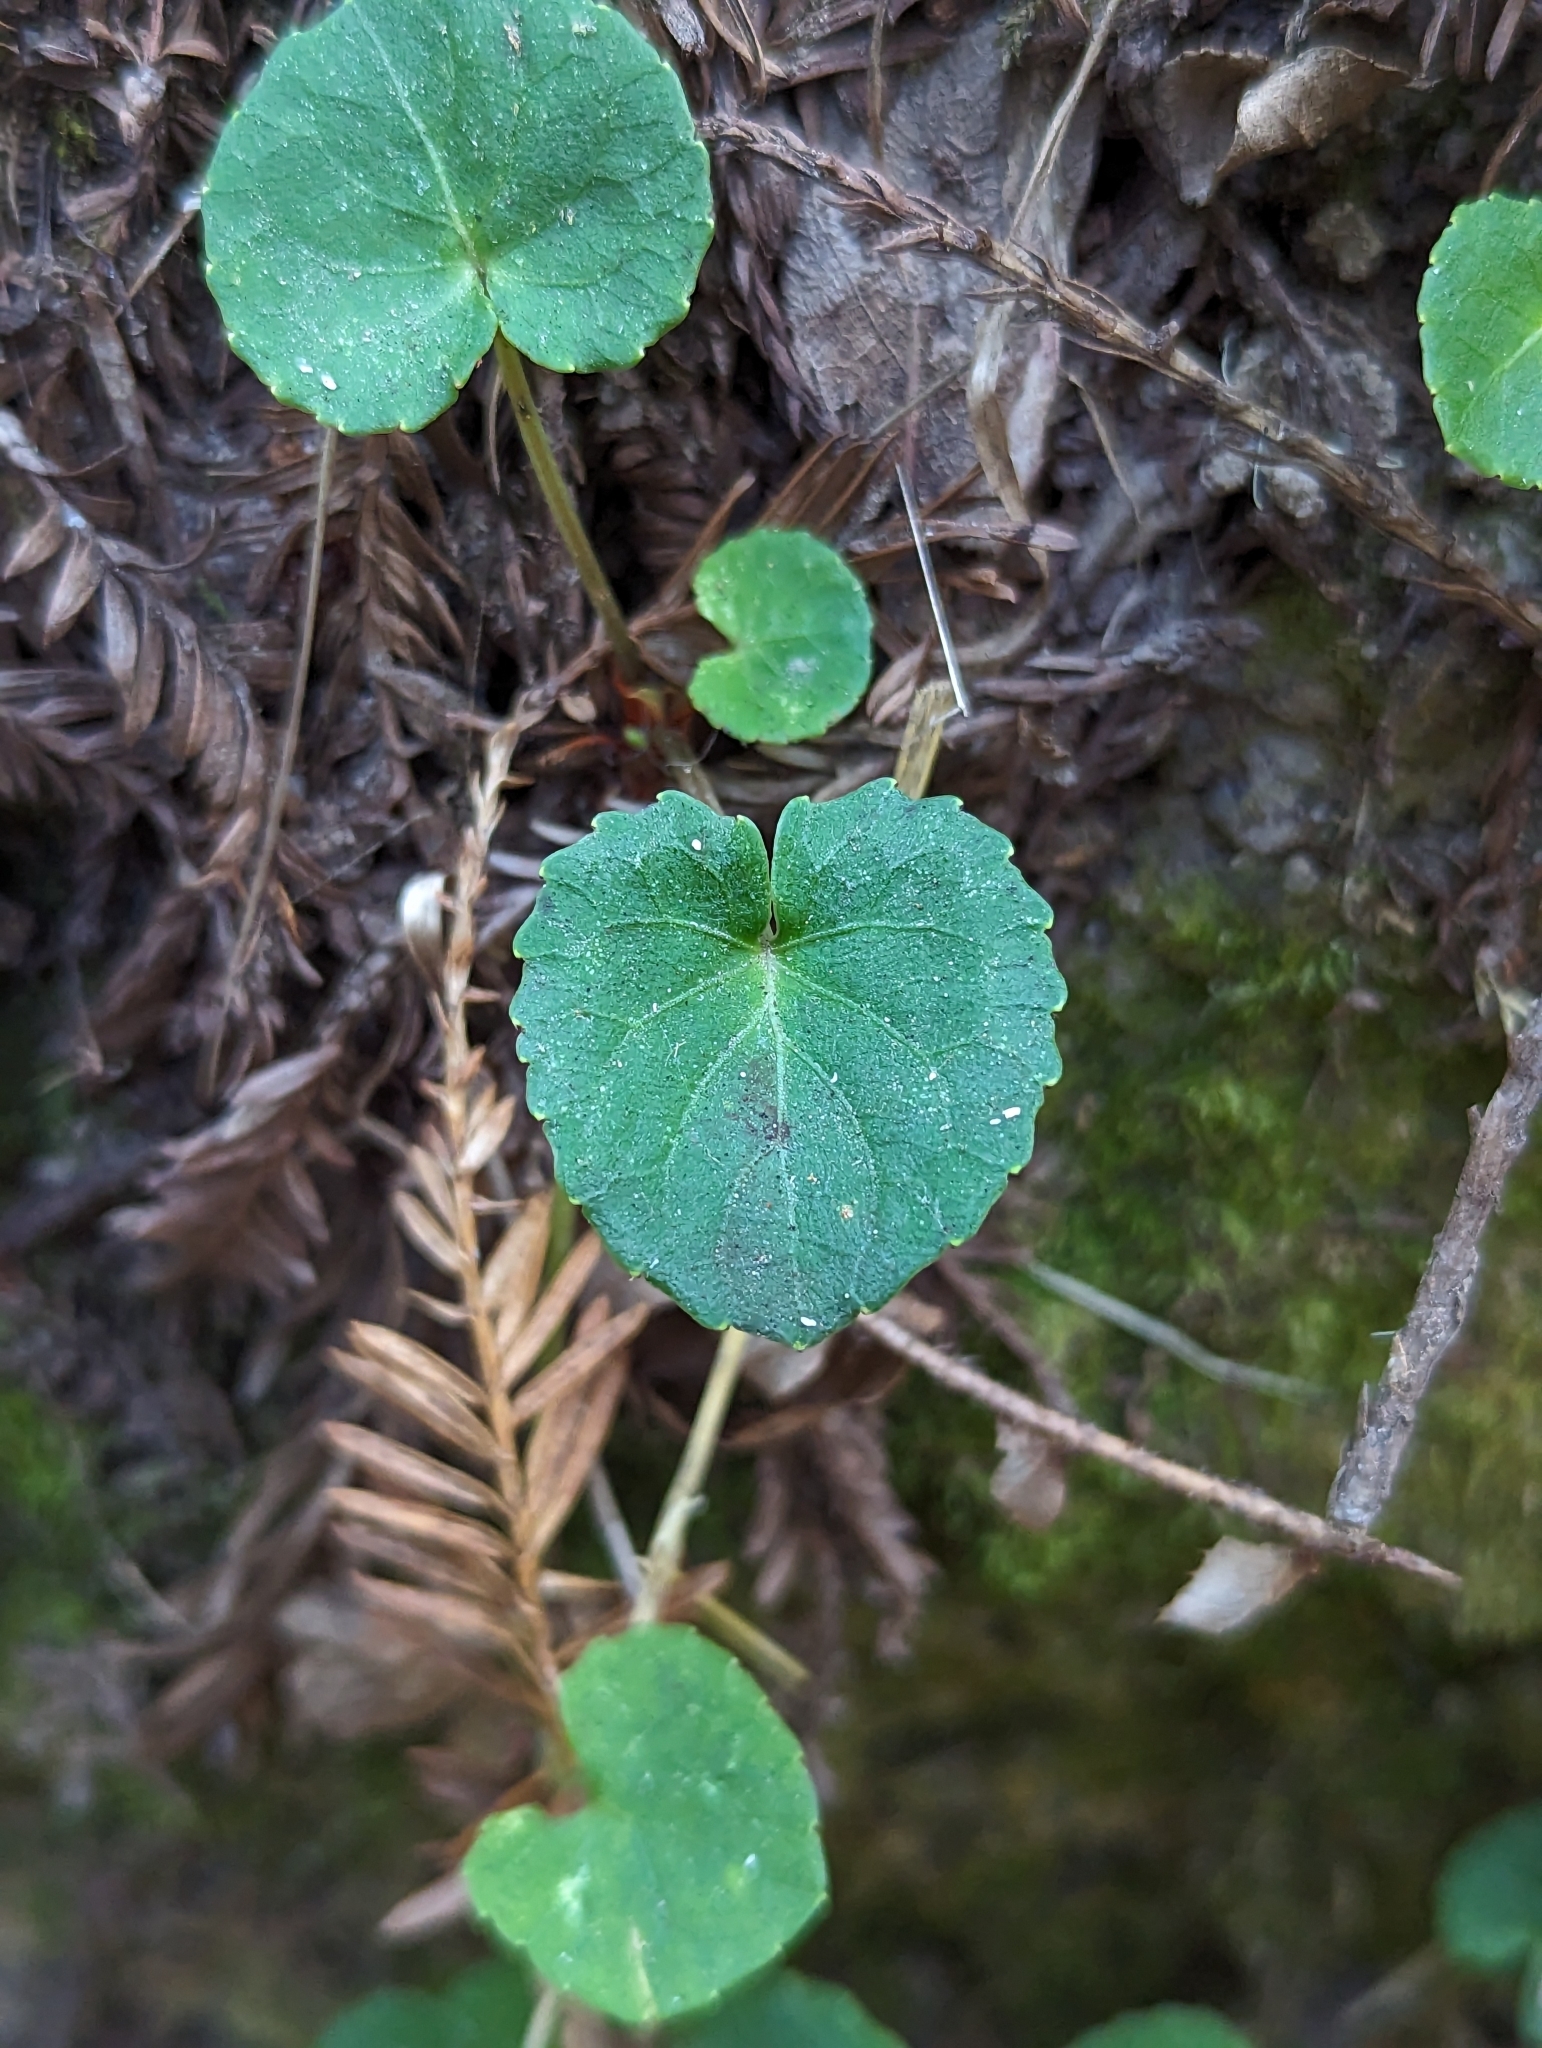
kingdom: Plantae
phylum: Tracheophyta
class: Magnoliopsida
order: Malpighiales
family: Violaceae
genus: Viola
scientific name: Viola sempervirens
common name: Evergreen violet
